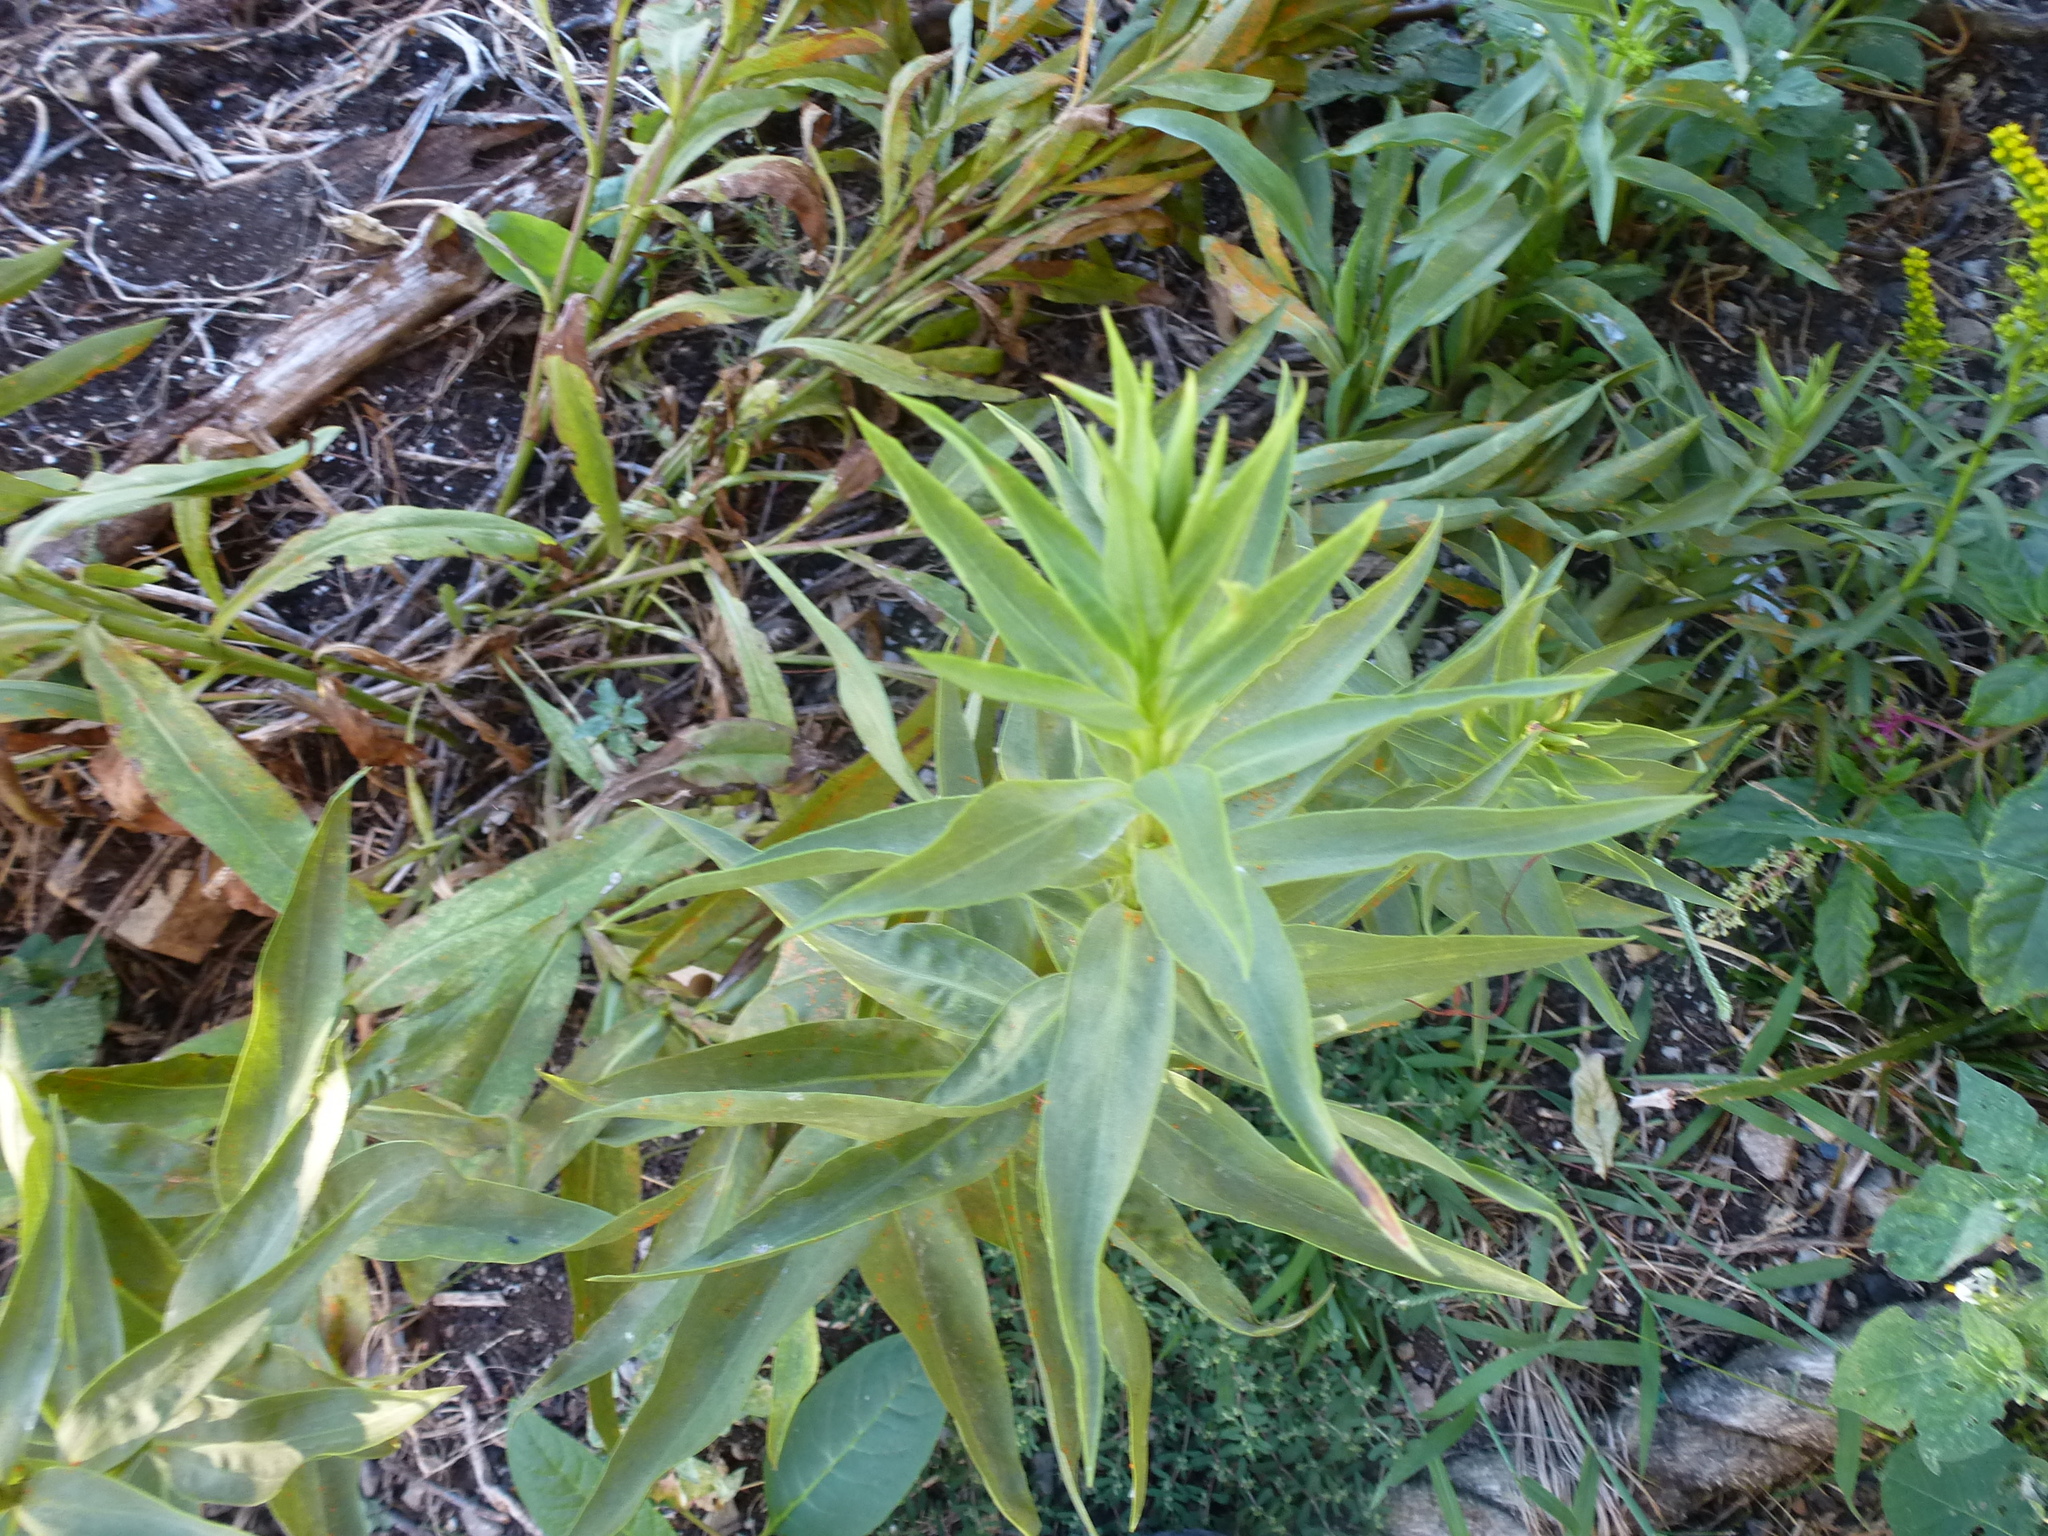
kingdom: Plantae
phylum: Tracheophyta
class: Magnoliopsida
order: Asterales
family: Asteraceae
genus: Solidago
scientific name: Solidago sempervirens
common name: Salt-marsh goldenrod
